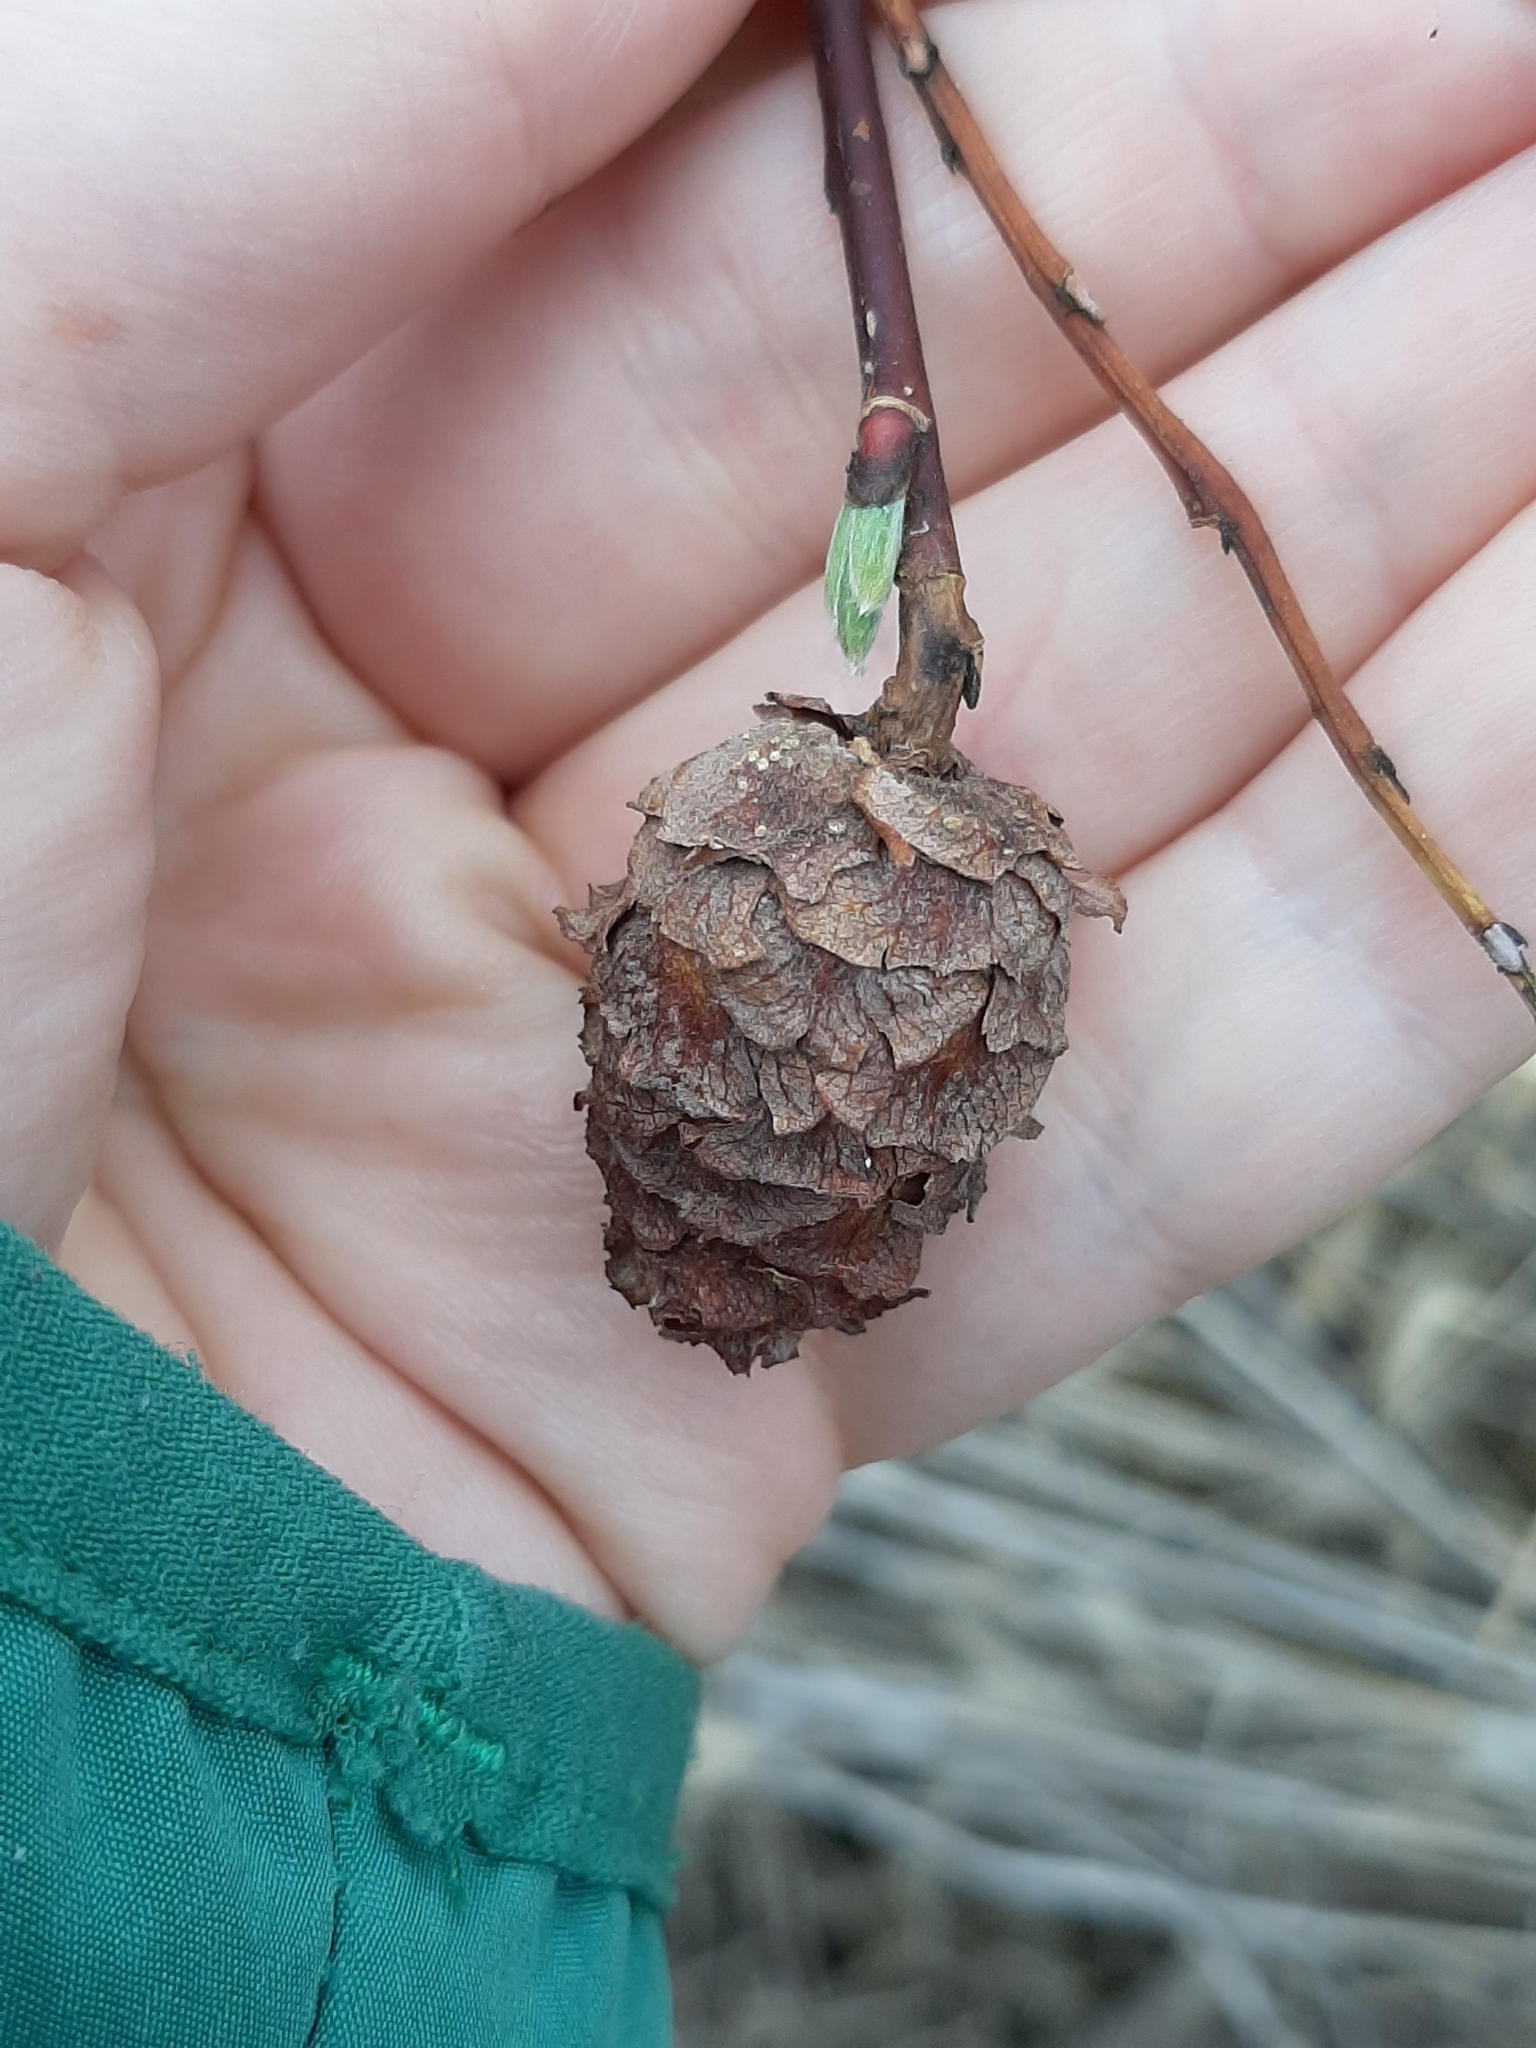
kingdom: Animalia
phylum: Arthropoda
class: Insecta
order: Diptera
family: Cecidomyiidae
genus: Rabdophaga
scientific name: Rabdophaga strobiloides
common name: Willow pinecone gall midge
